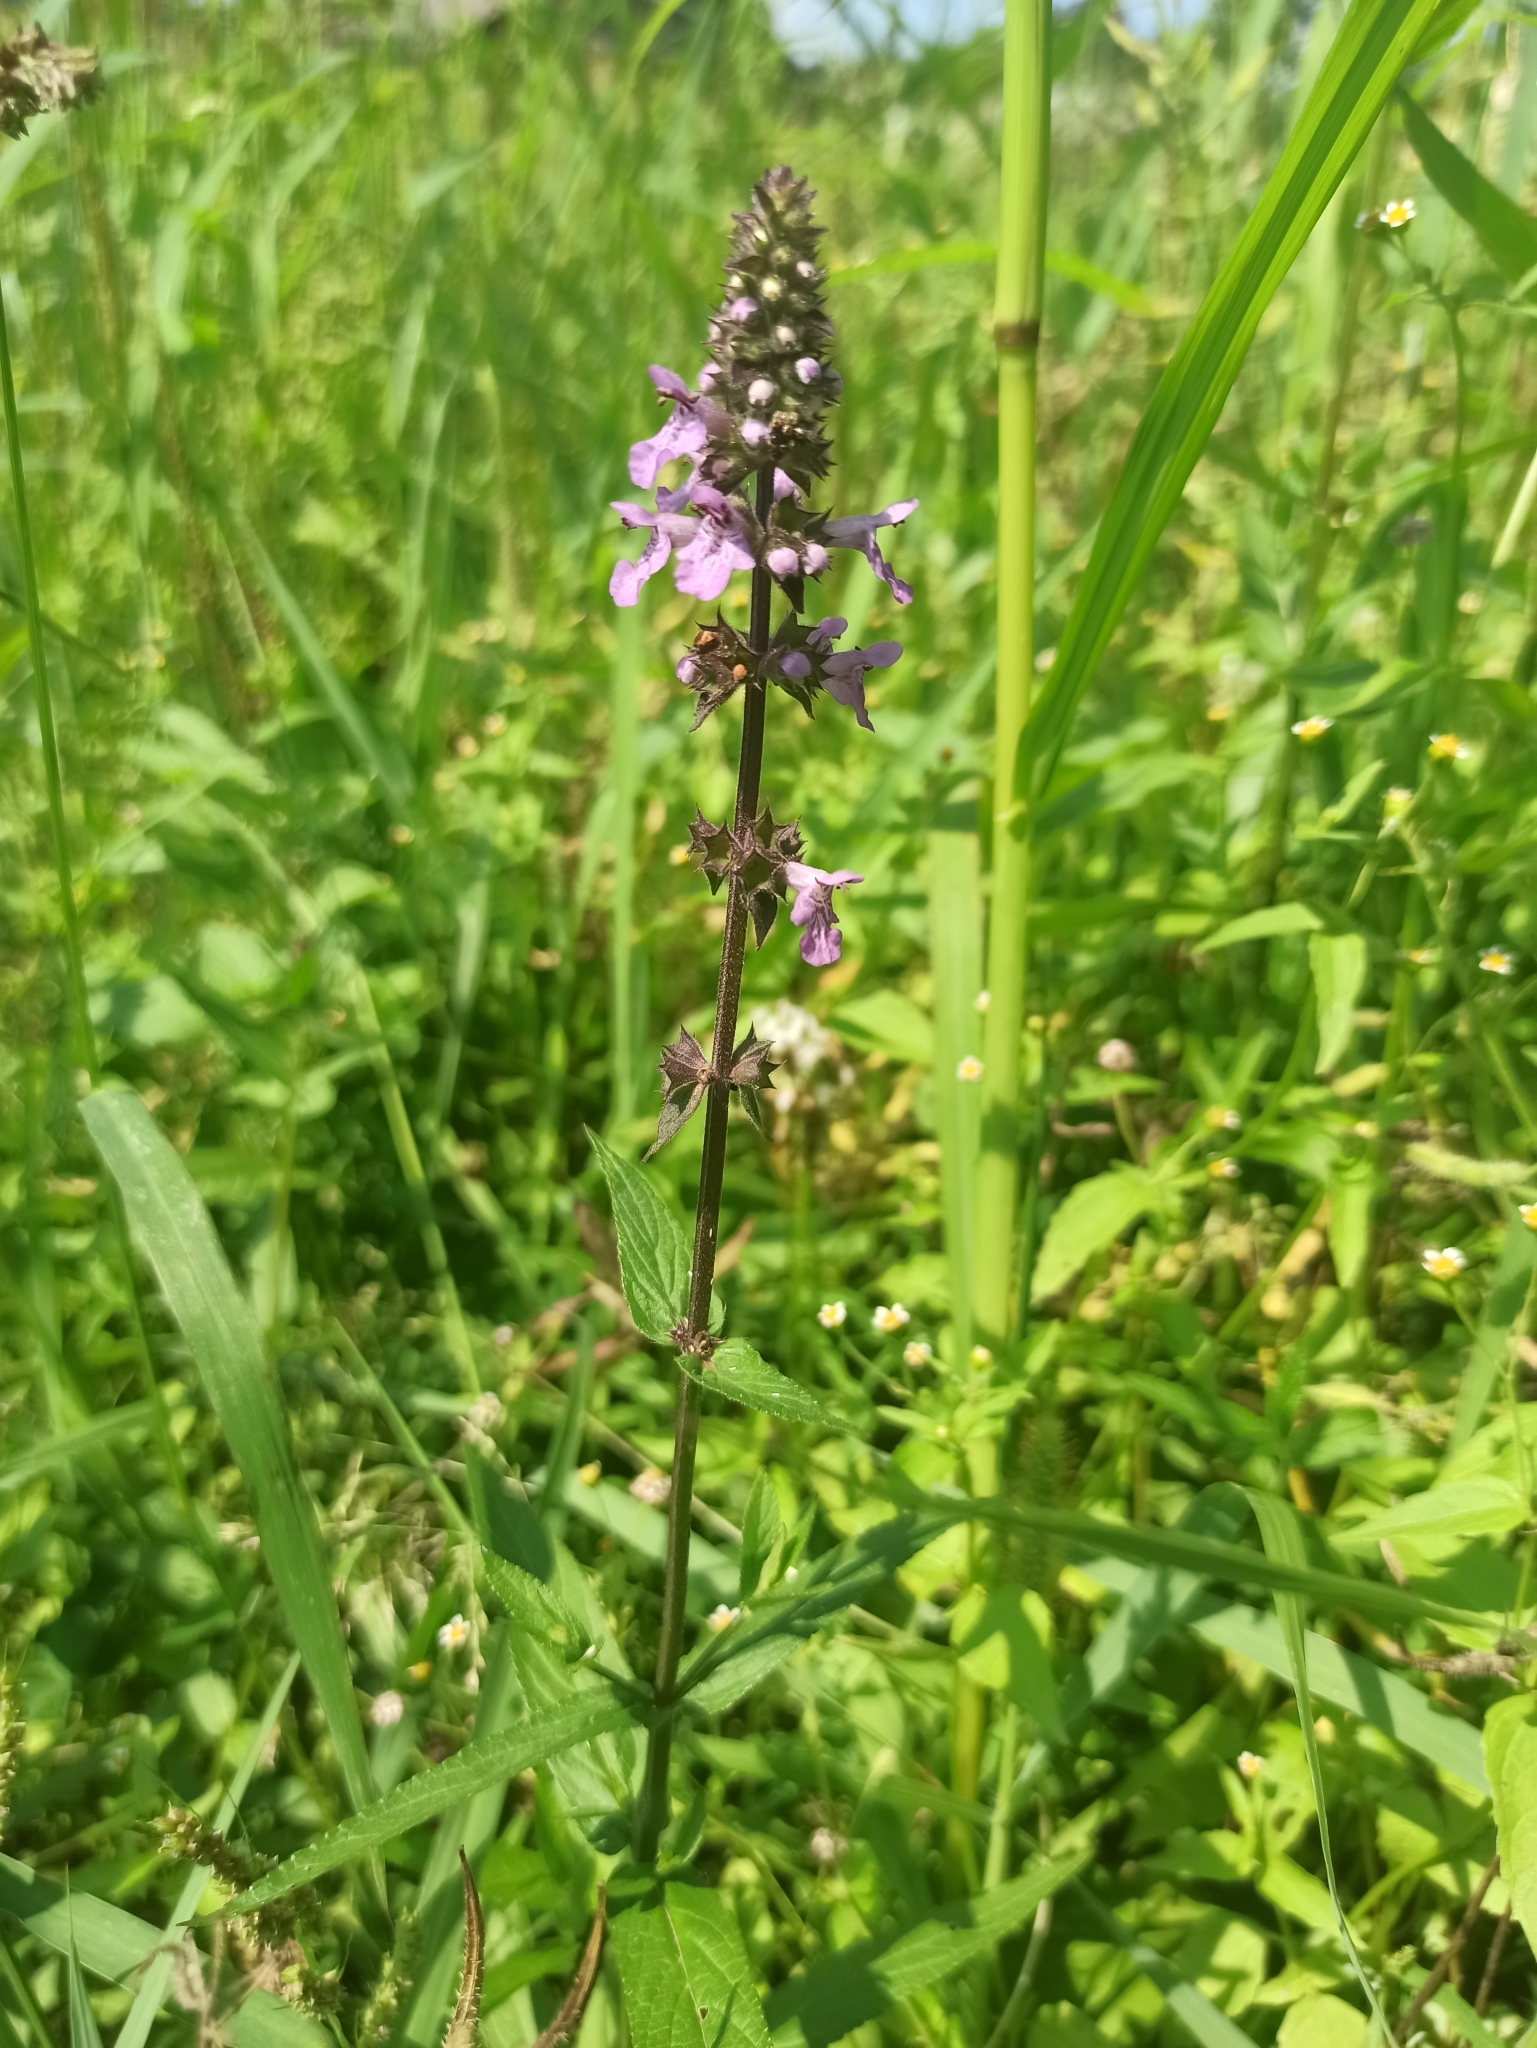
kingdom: Plantae
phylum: Tracheophyta
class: Magnoliopsida
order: Lamiales
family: Lamiaceae
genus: Stachys
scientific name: Stachys palustris
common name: Marsh woundwort
